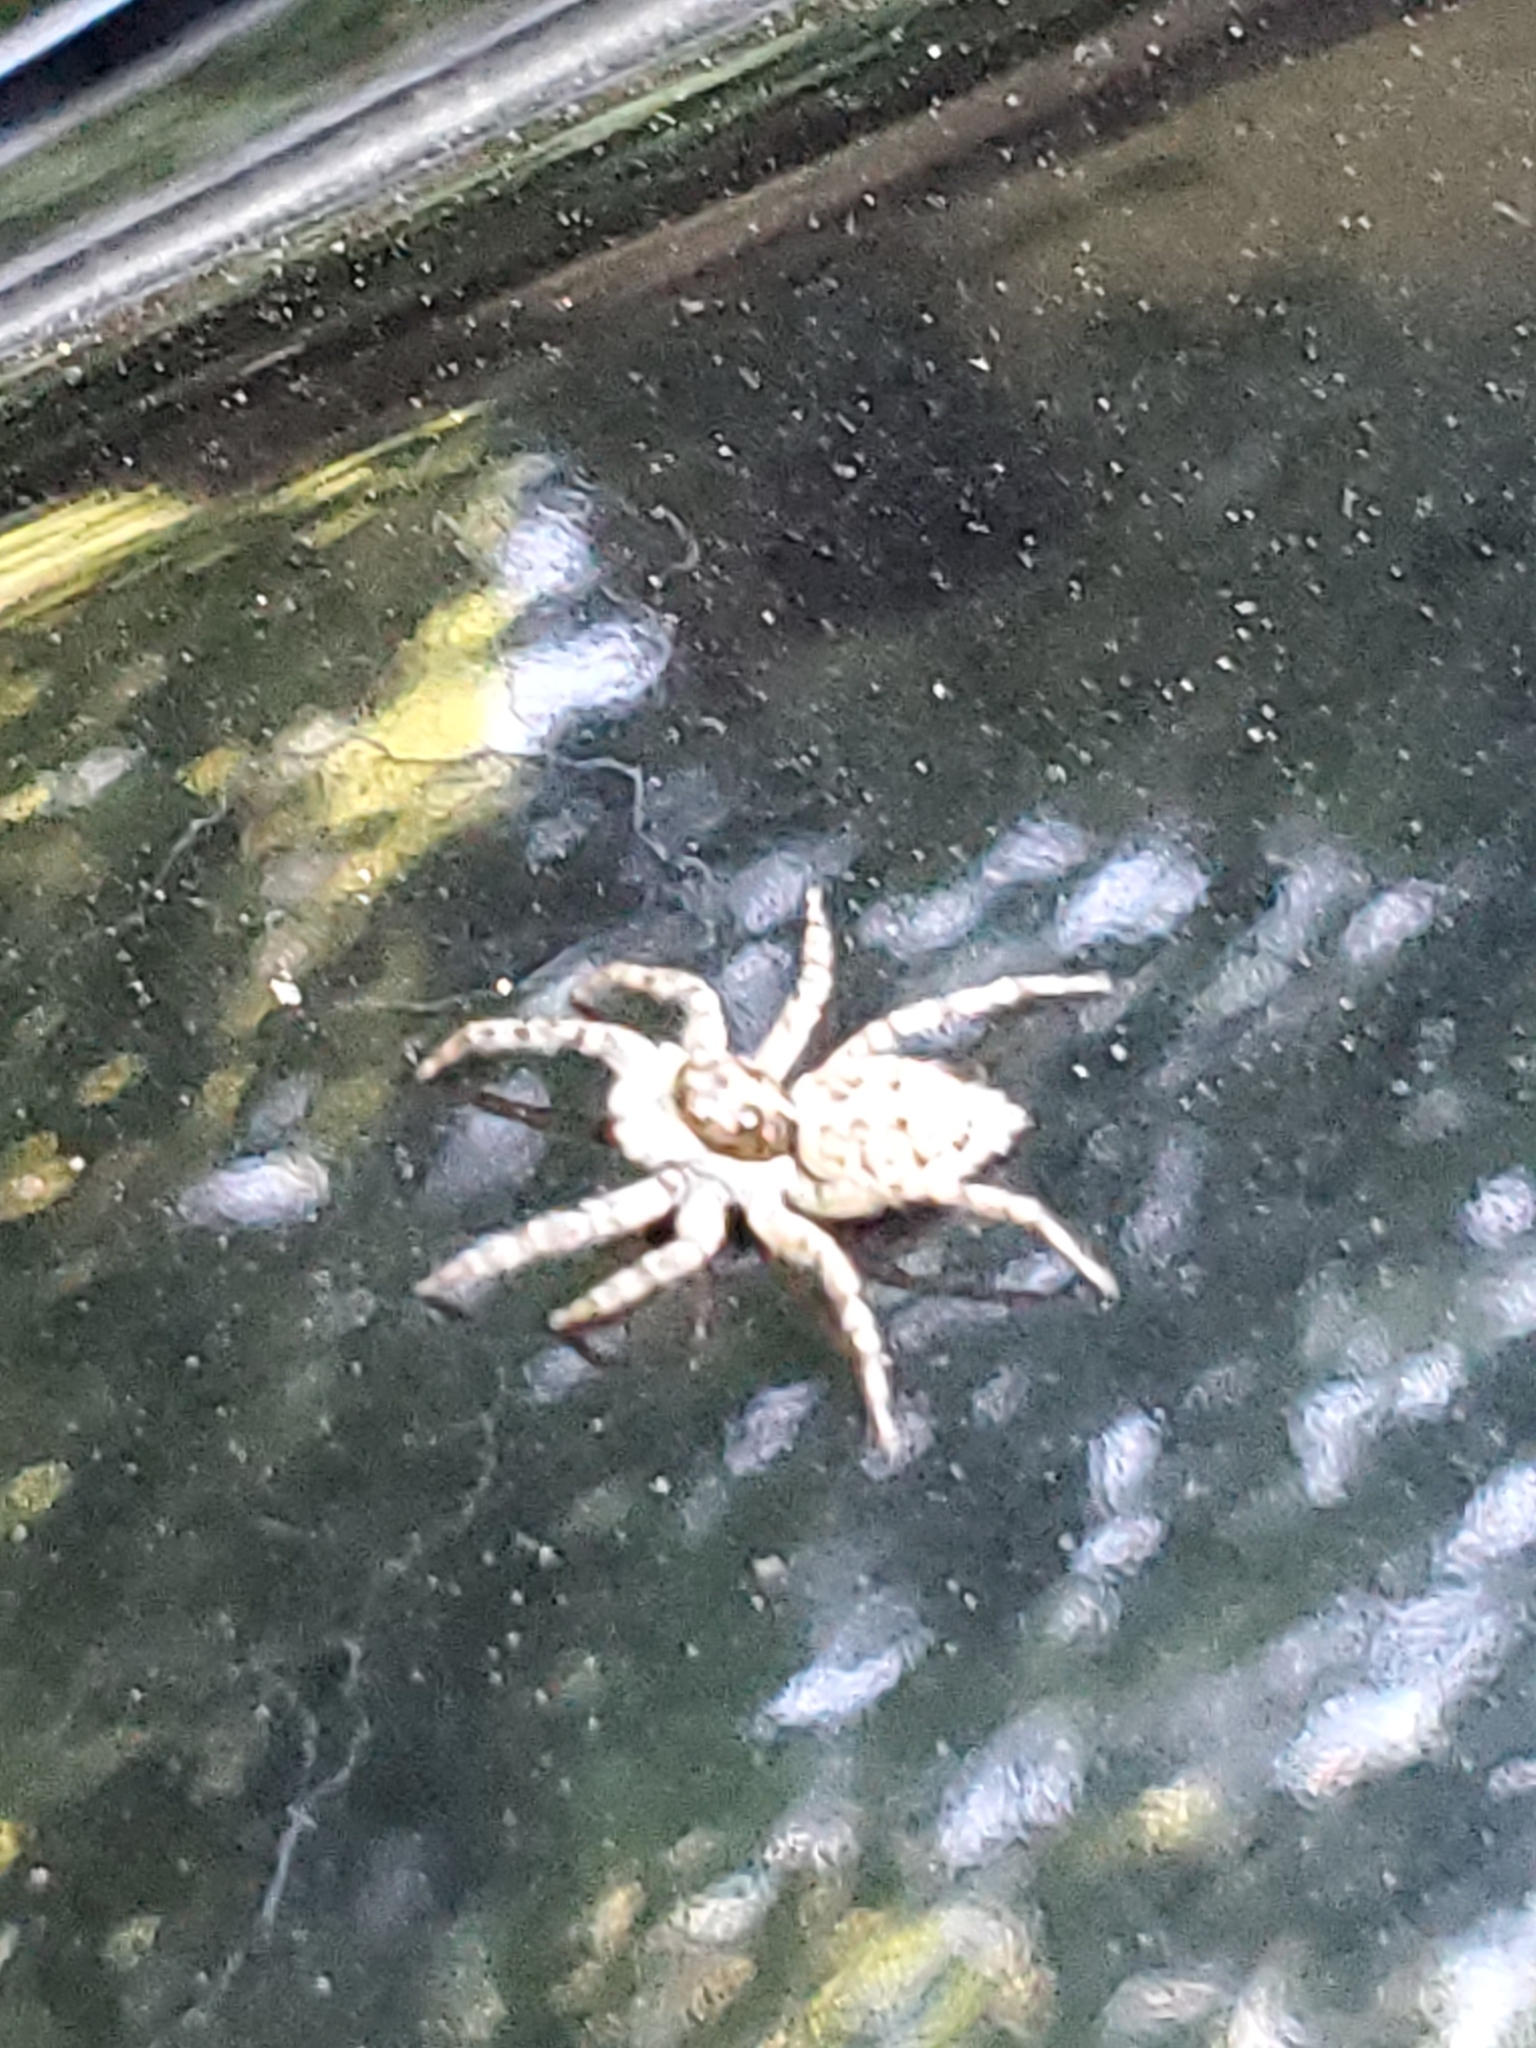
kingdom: Animalia
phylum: Arthropoda
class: Arachnida
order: Araneae
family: Salticidae
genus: Menemerus
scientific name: Menemerus semilimbatus
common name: Jumping spider
